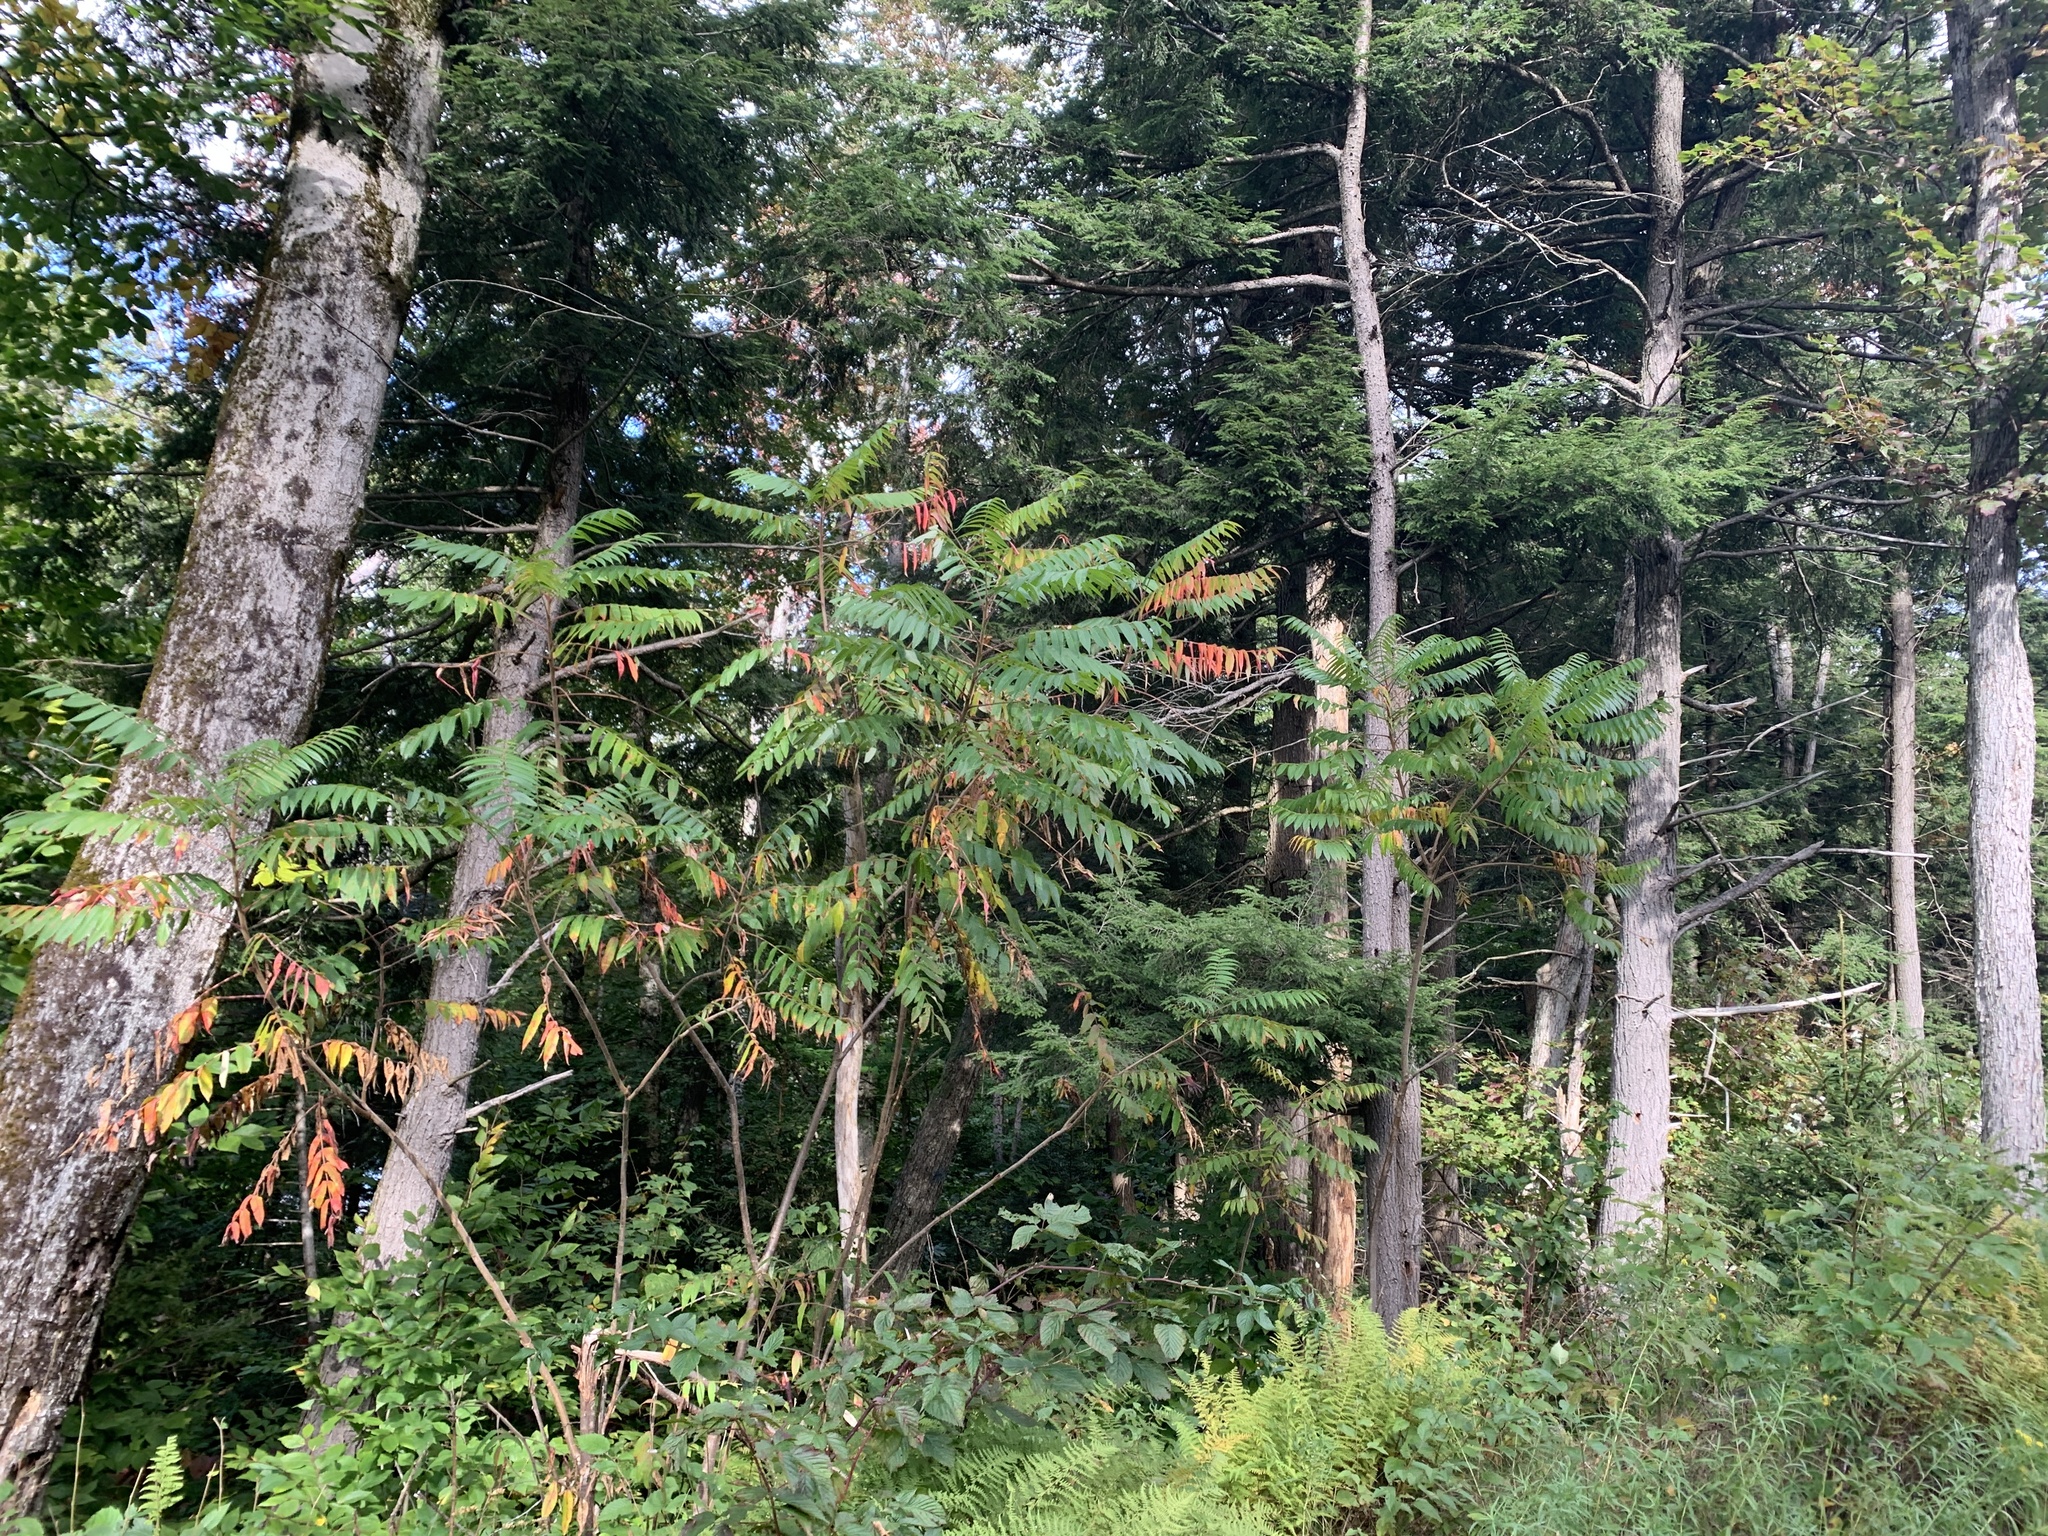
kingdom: Plantae
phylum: Tracheophyta
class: Magnoliopsida
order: Sapindales
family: Anacardiaceae
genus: Rhus
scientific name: Rhus typhina
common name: Staghorn sumac
